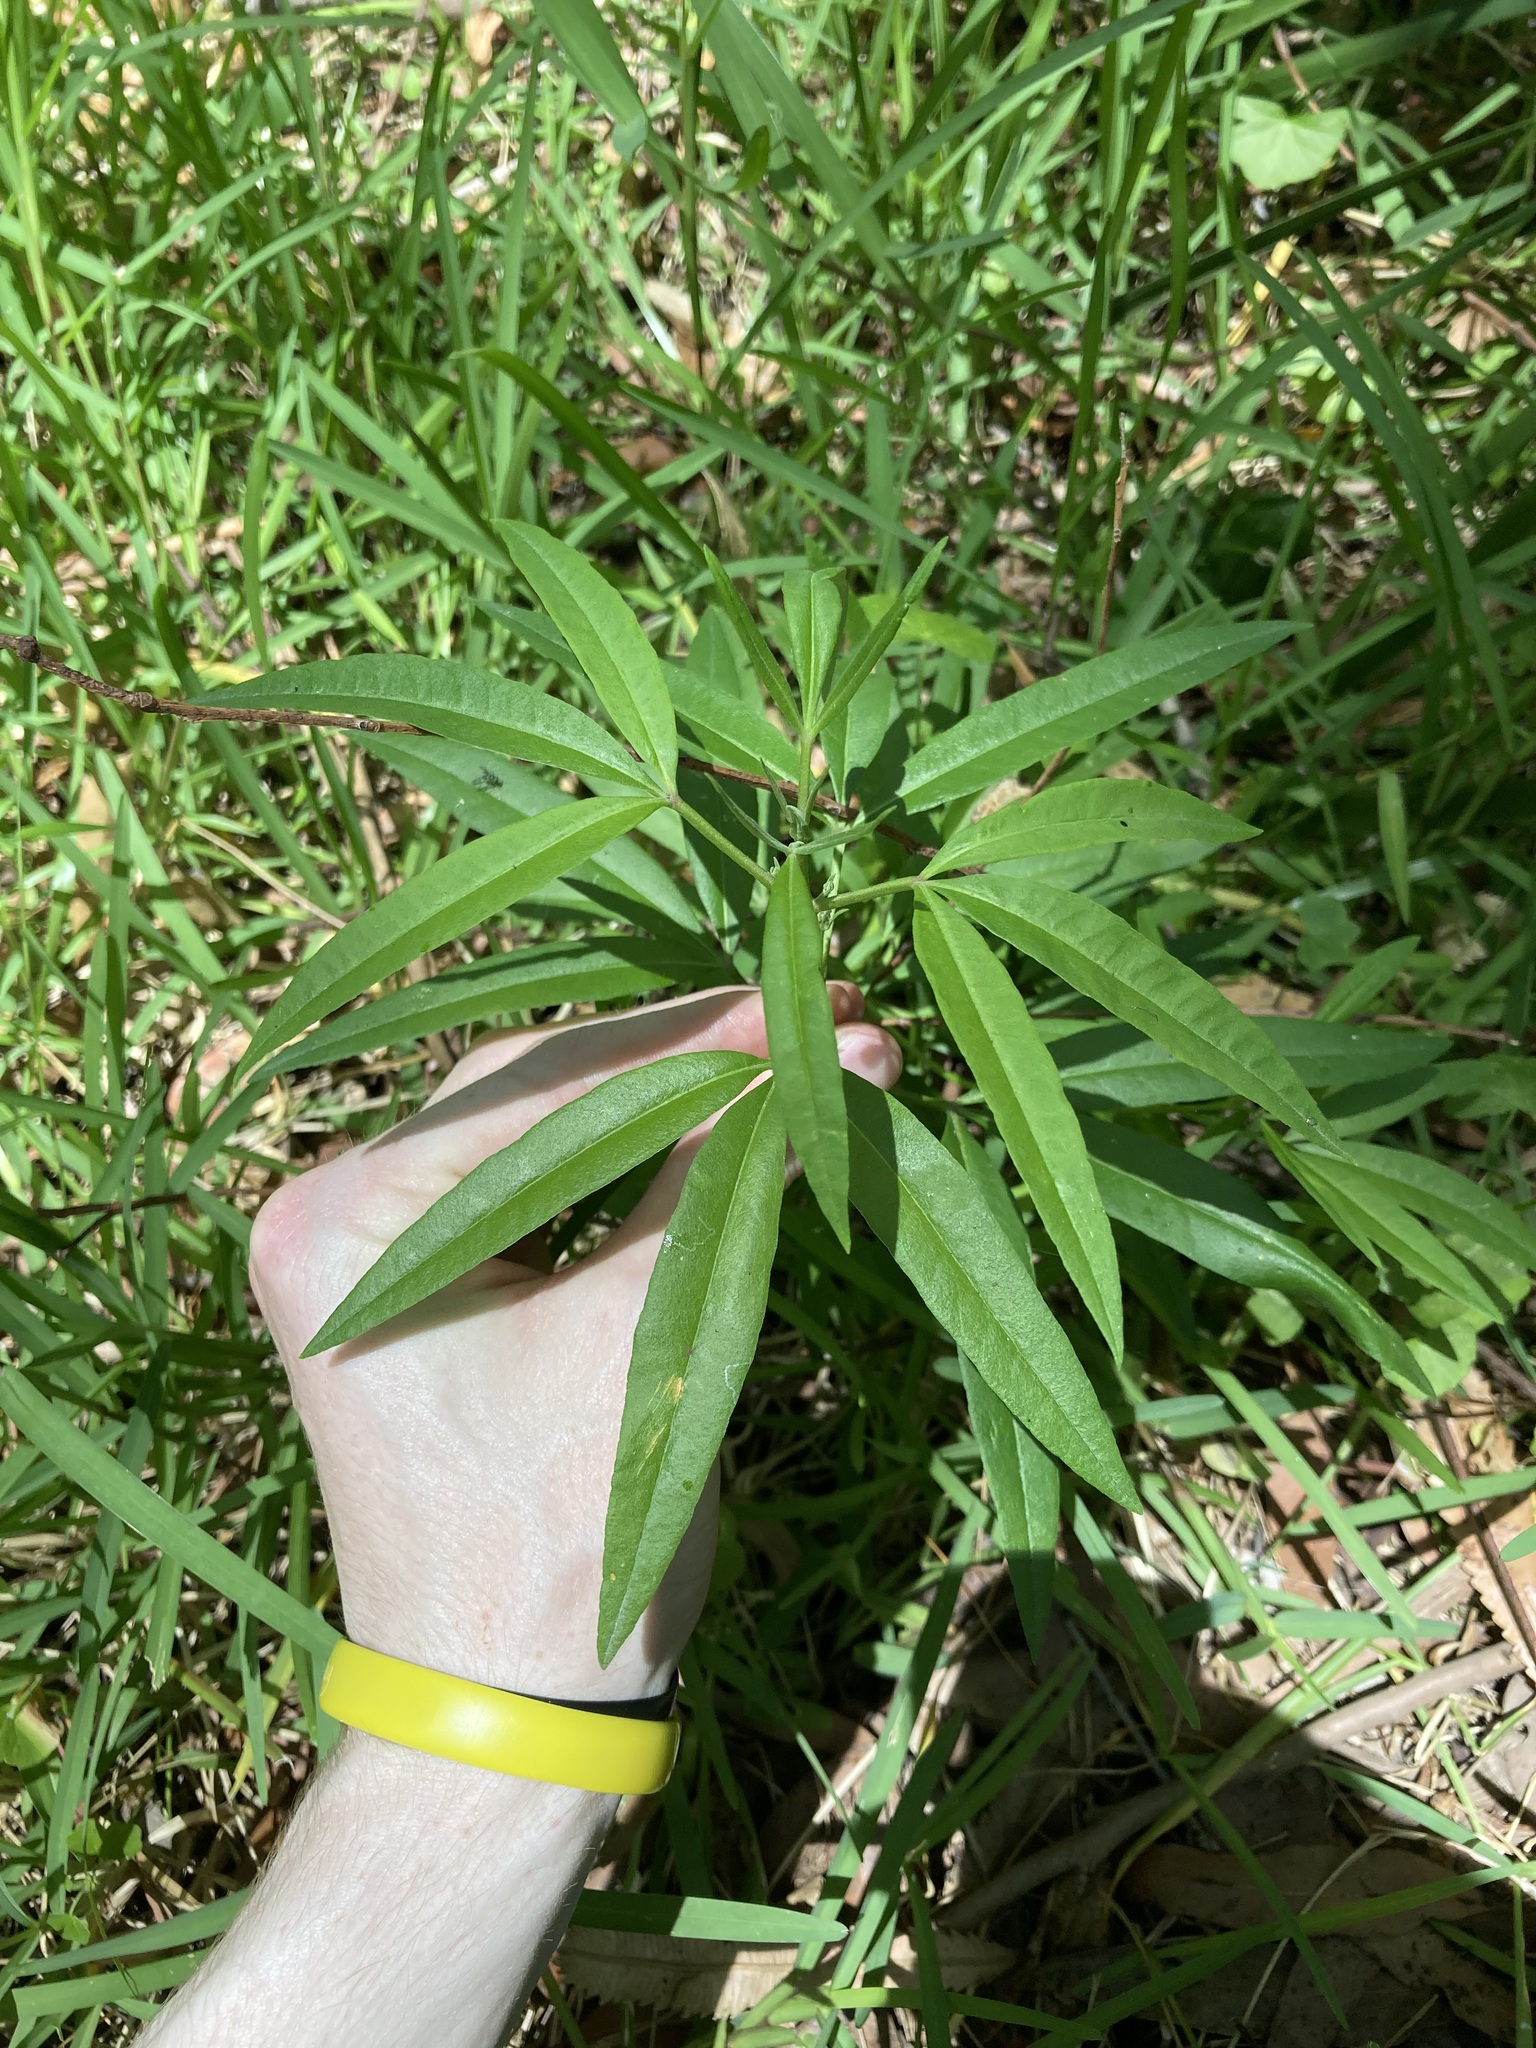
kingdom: Plantae
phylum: Tracheophyta
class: Magnoliopsida
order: Sapindales
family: Rutaceae
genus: Zieria
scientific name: Zieria arborescens
